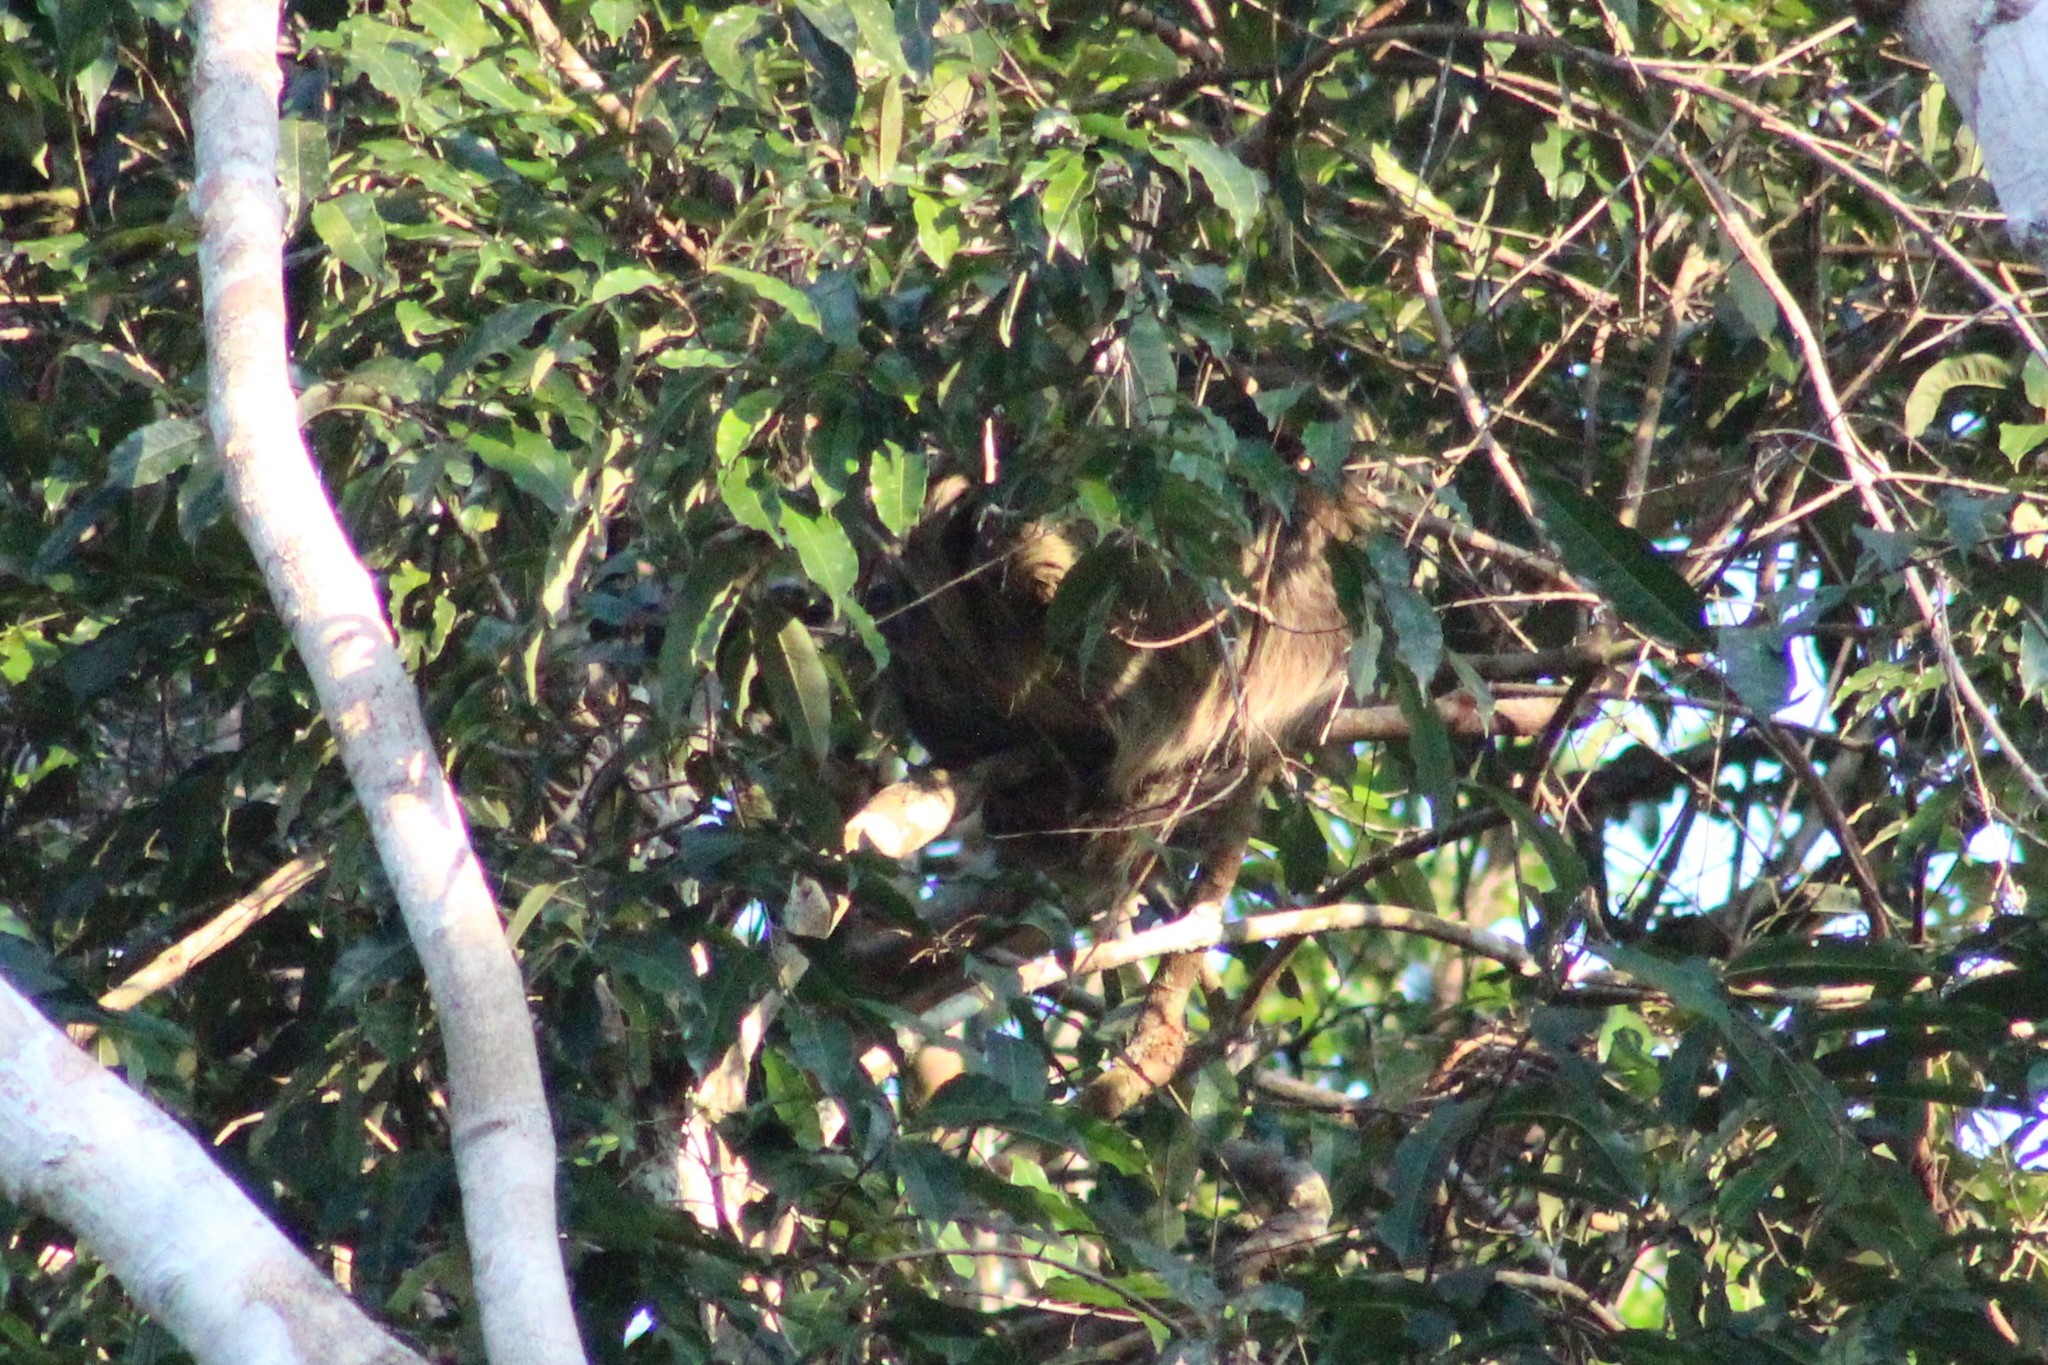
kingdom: Animalia
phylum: Chordata
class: Mammalia
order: Pilosa
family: Megalonychidae
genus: Choloepus
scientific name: Choloepus didactylus
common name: Southern two-toed sloth
